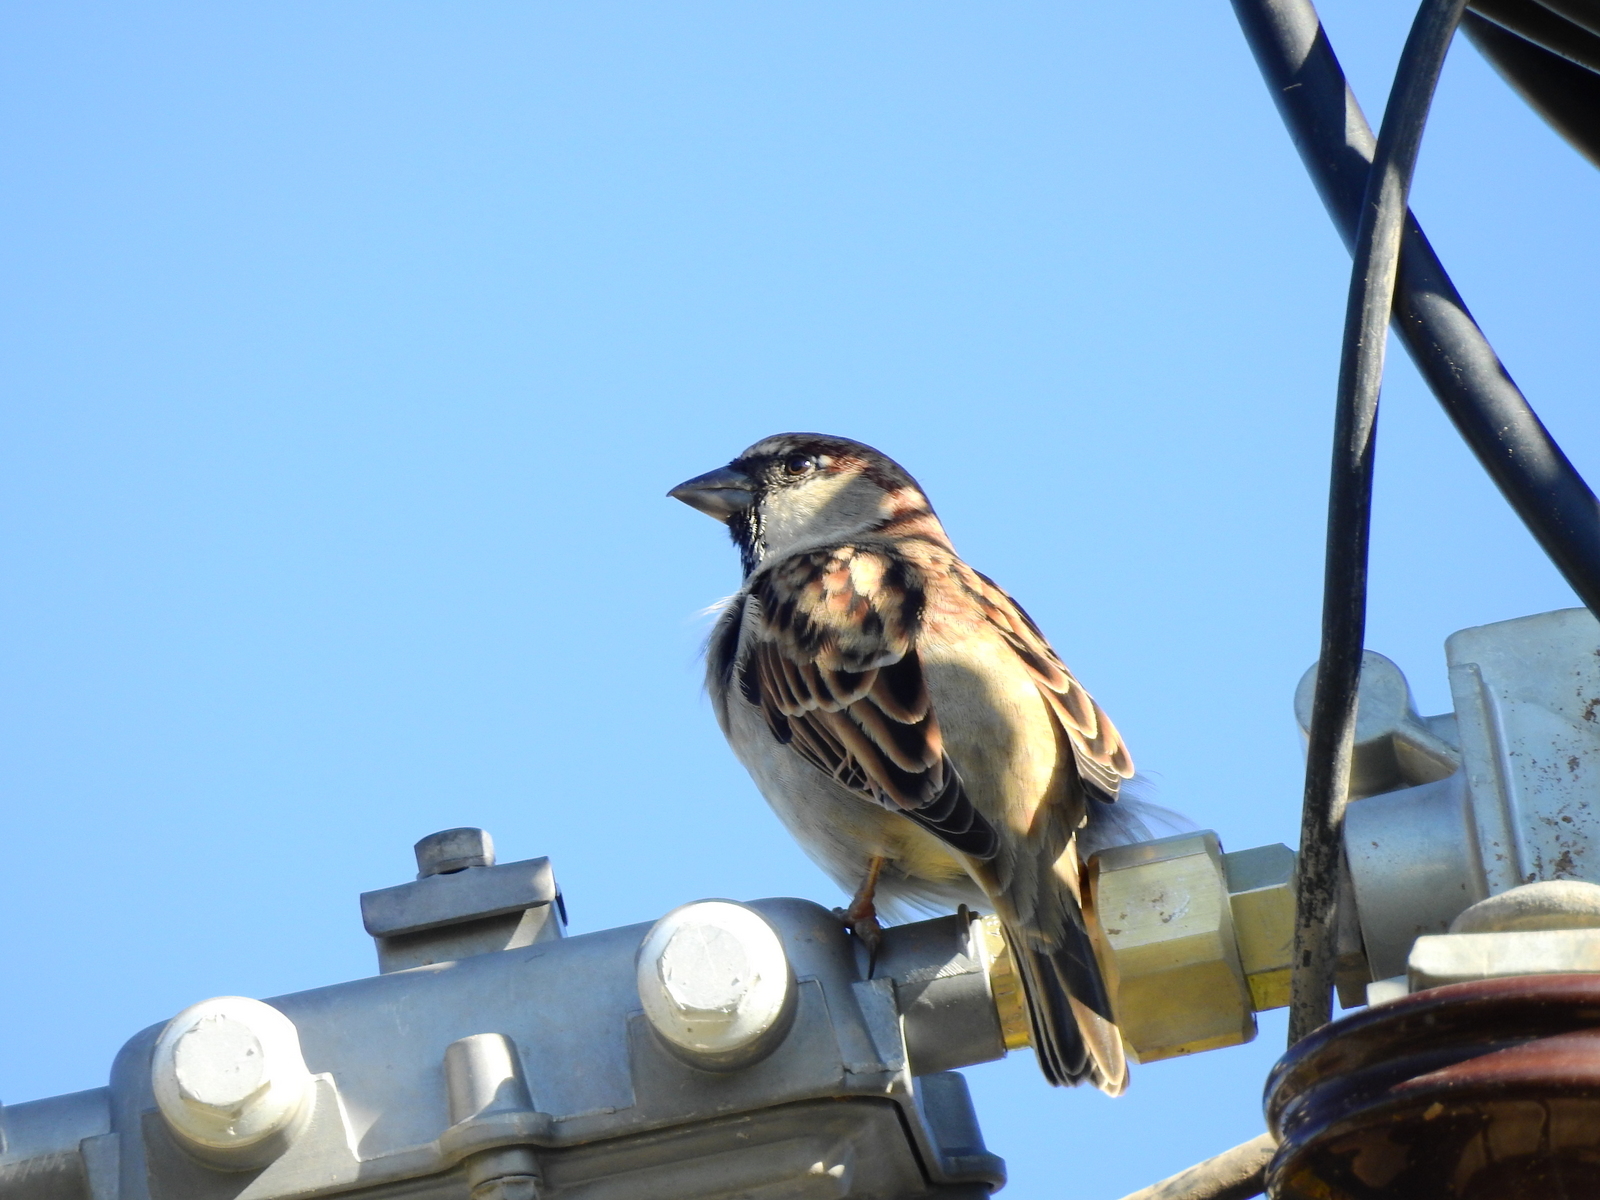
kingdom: Animalia
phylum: Chordata
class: Aves
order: Passeriformes
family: Passeridae
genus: Passer
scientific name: Passer domesticus
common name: House sparrow
